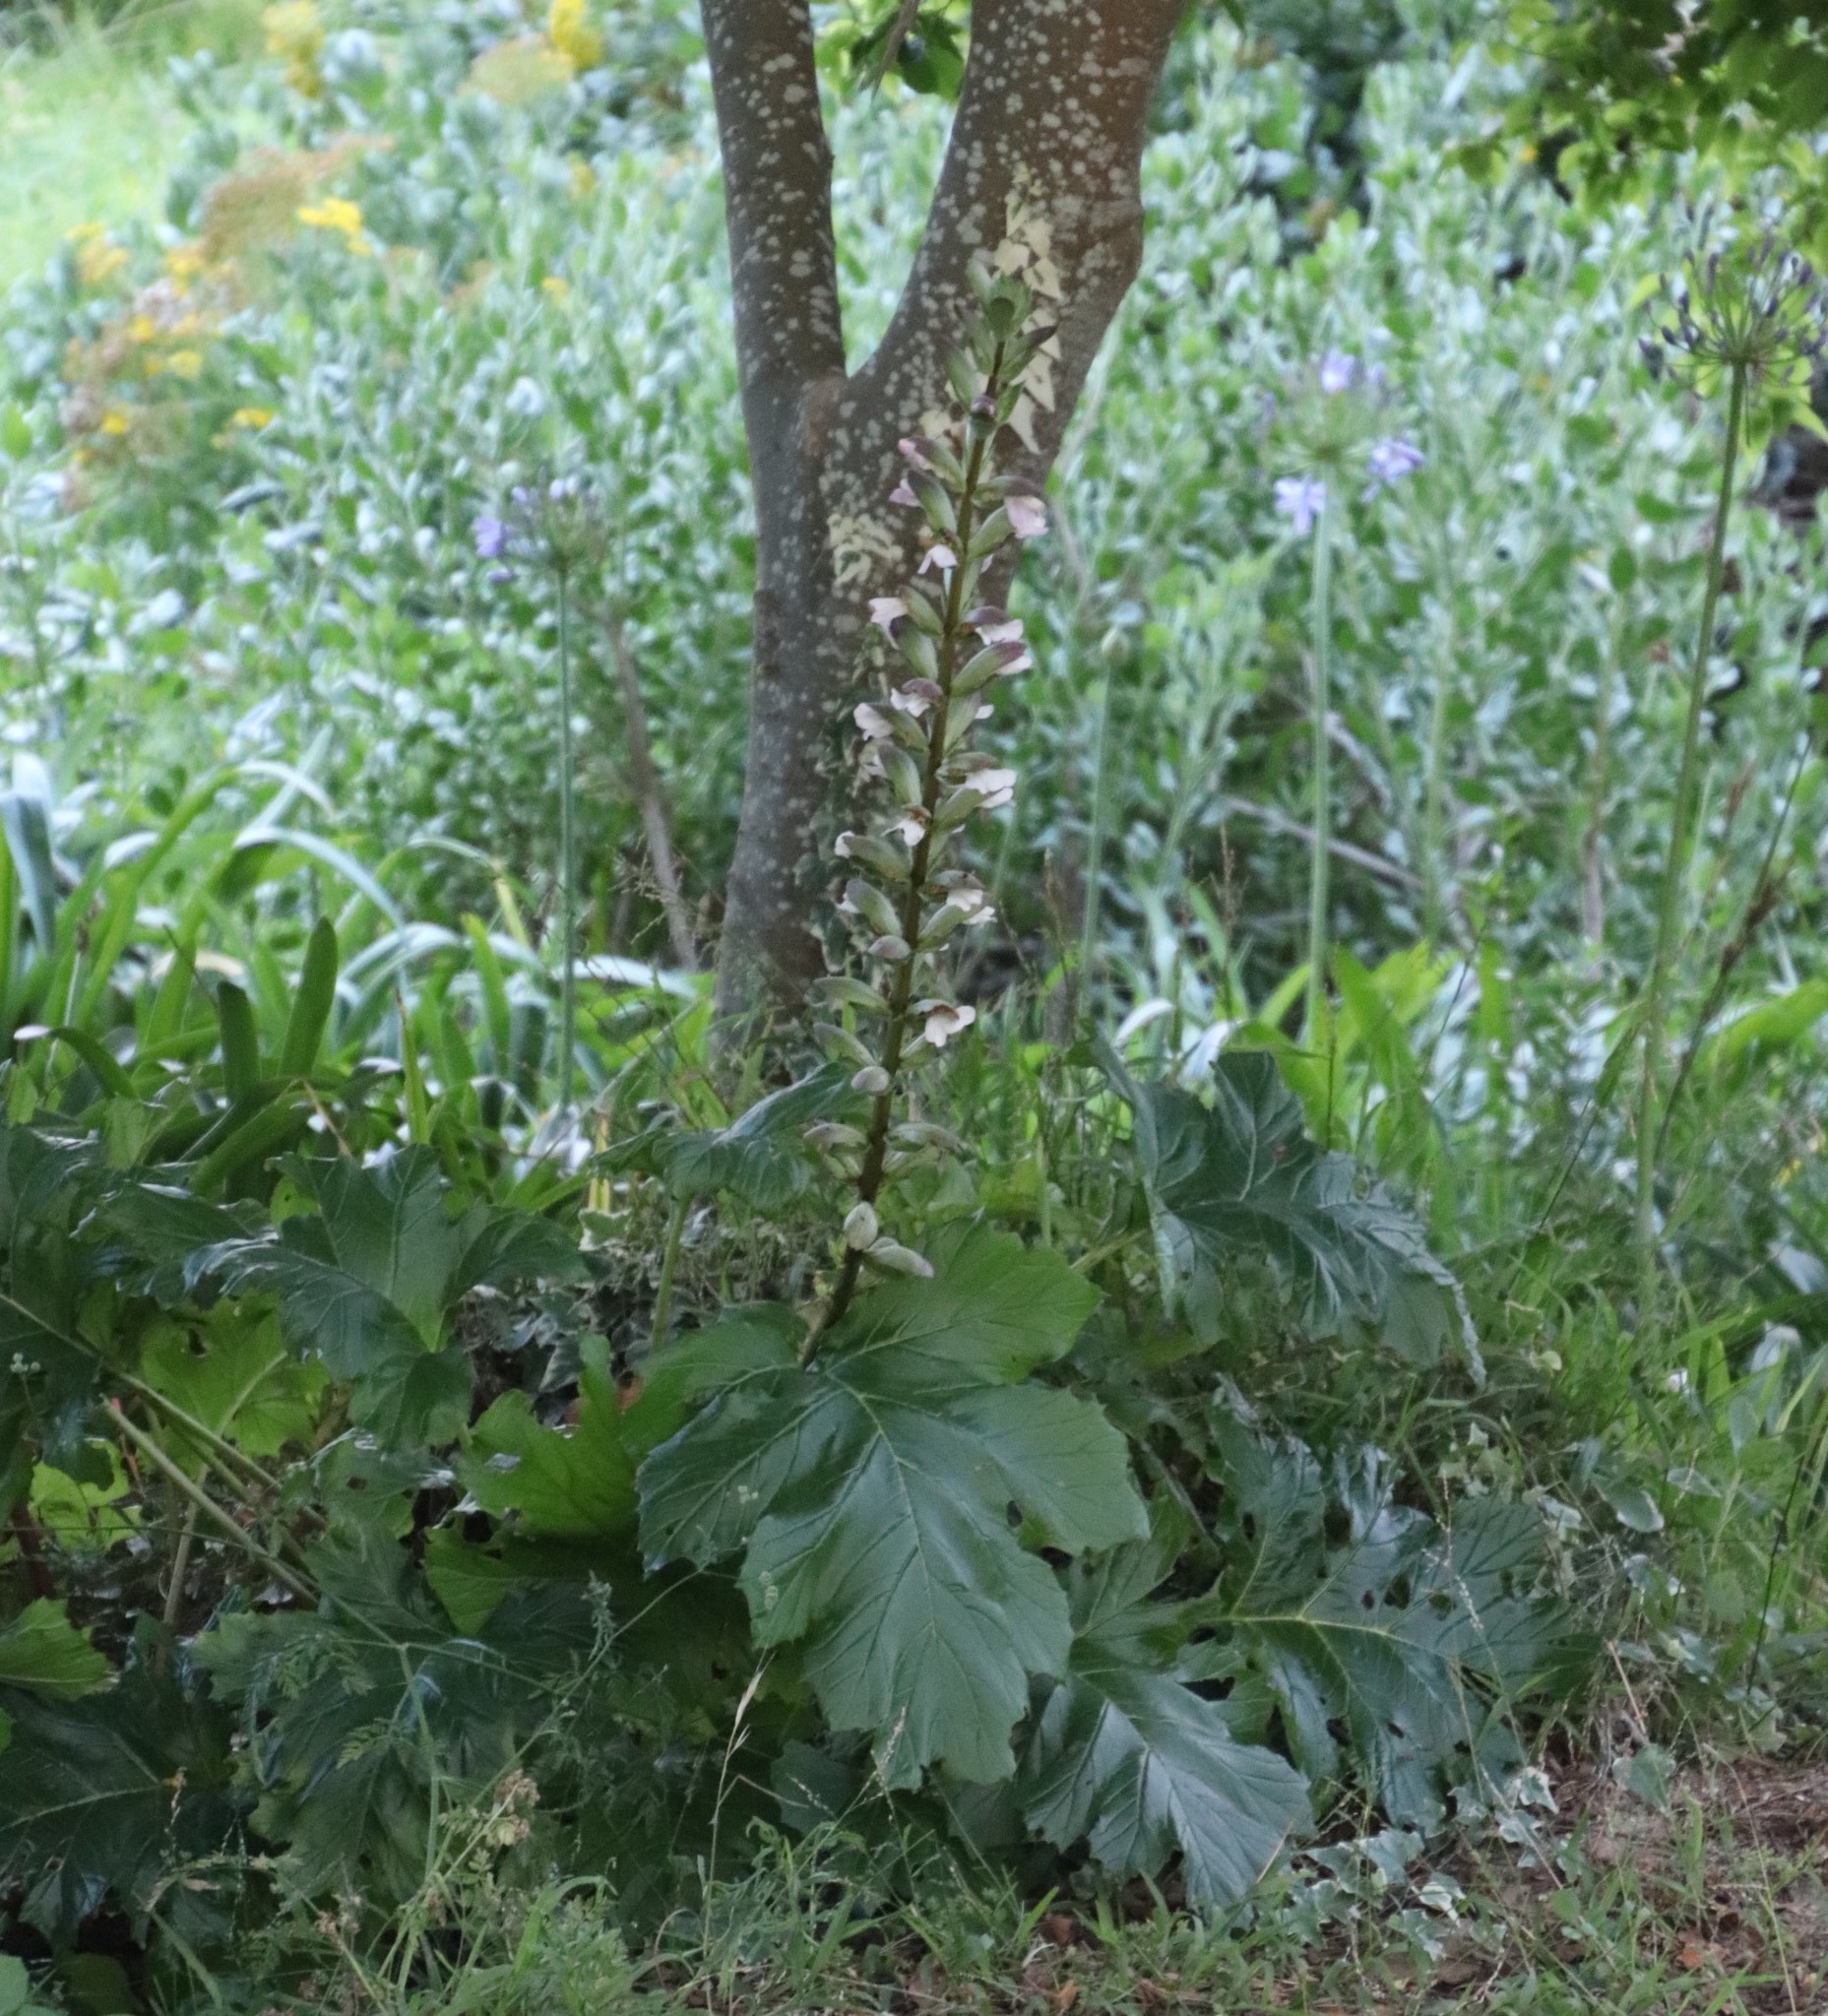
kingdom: Plantae
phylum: Tracheophyta
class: Magnoliopsida
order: Lamiales
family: Acanthaceae
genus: Acanthus
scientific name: Acanthus mollis
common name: Bear's-breech
